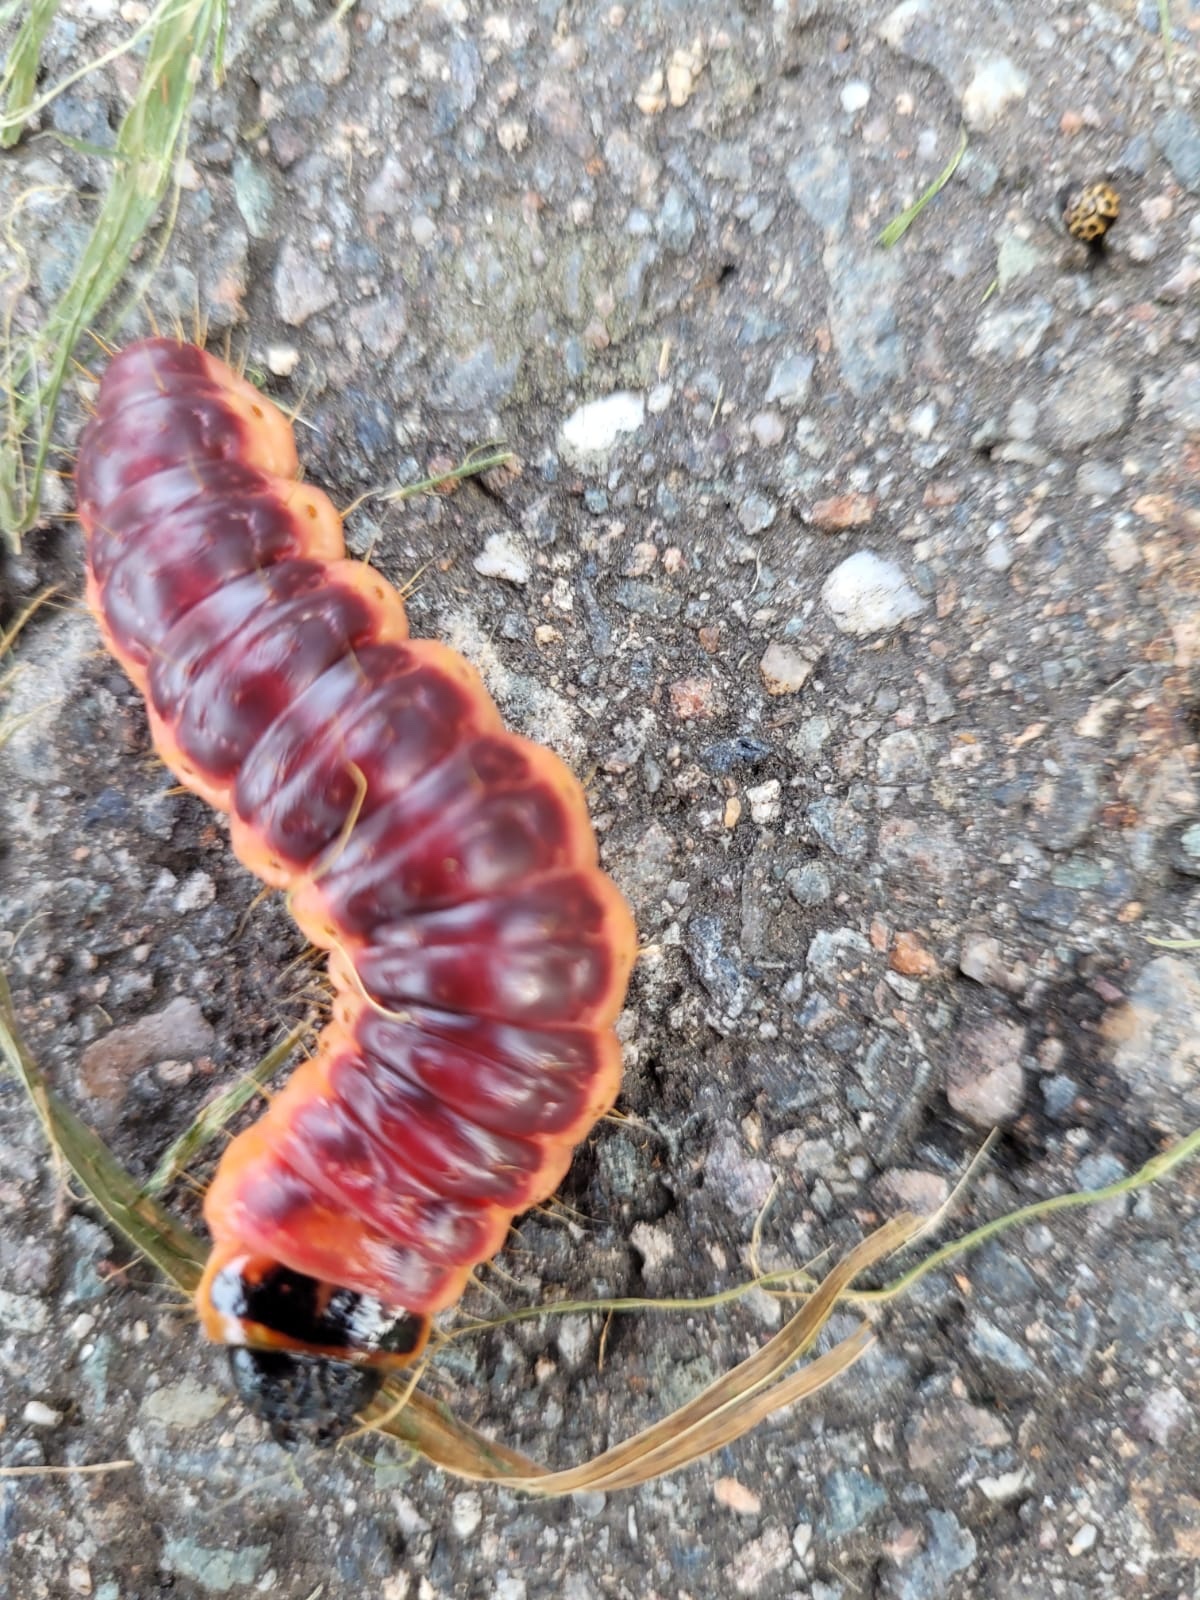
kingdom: Animalia
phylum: Arthropoda
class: Insecta
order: Lepidoptera
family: Cossidae
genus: Cossus
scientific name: Cossus cossus
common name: Goat moth
